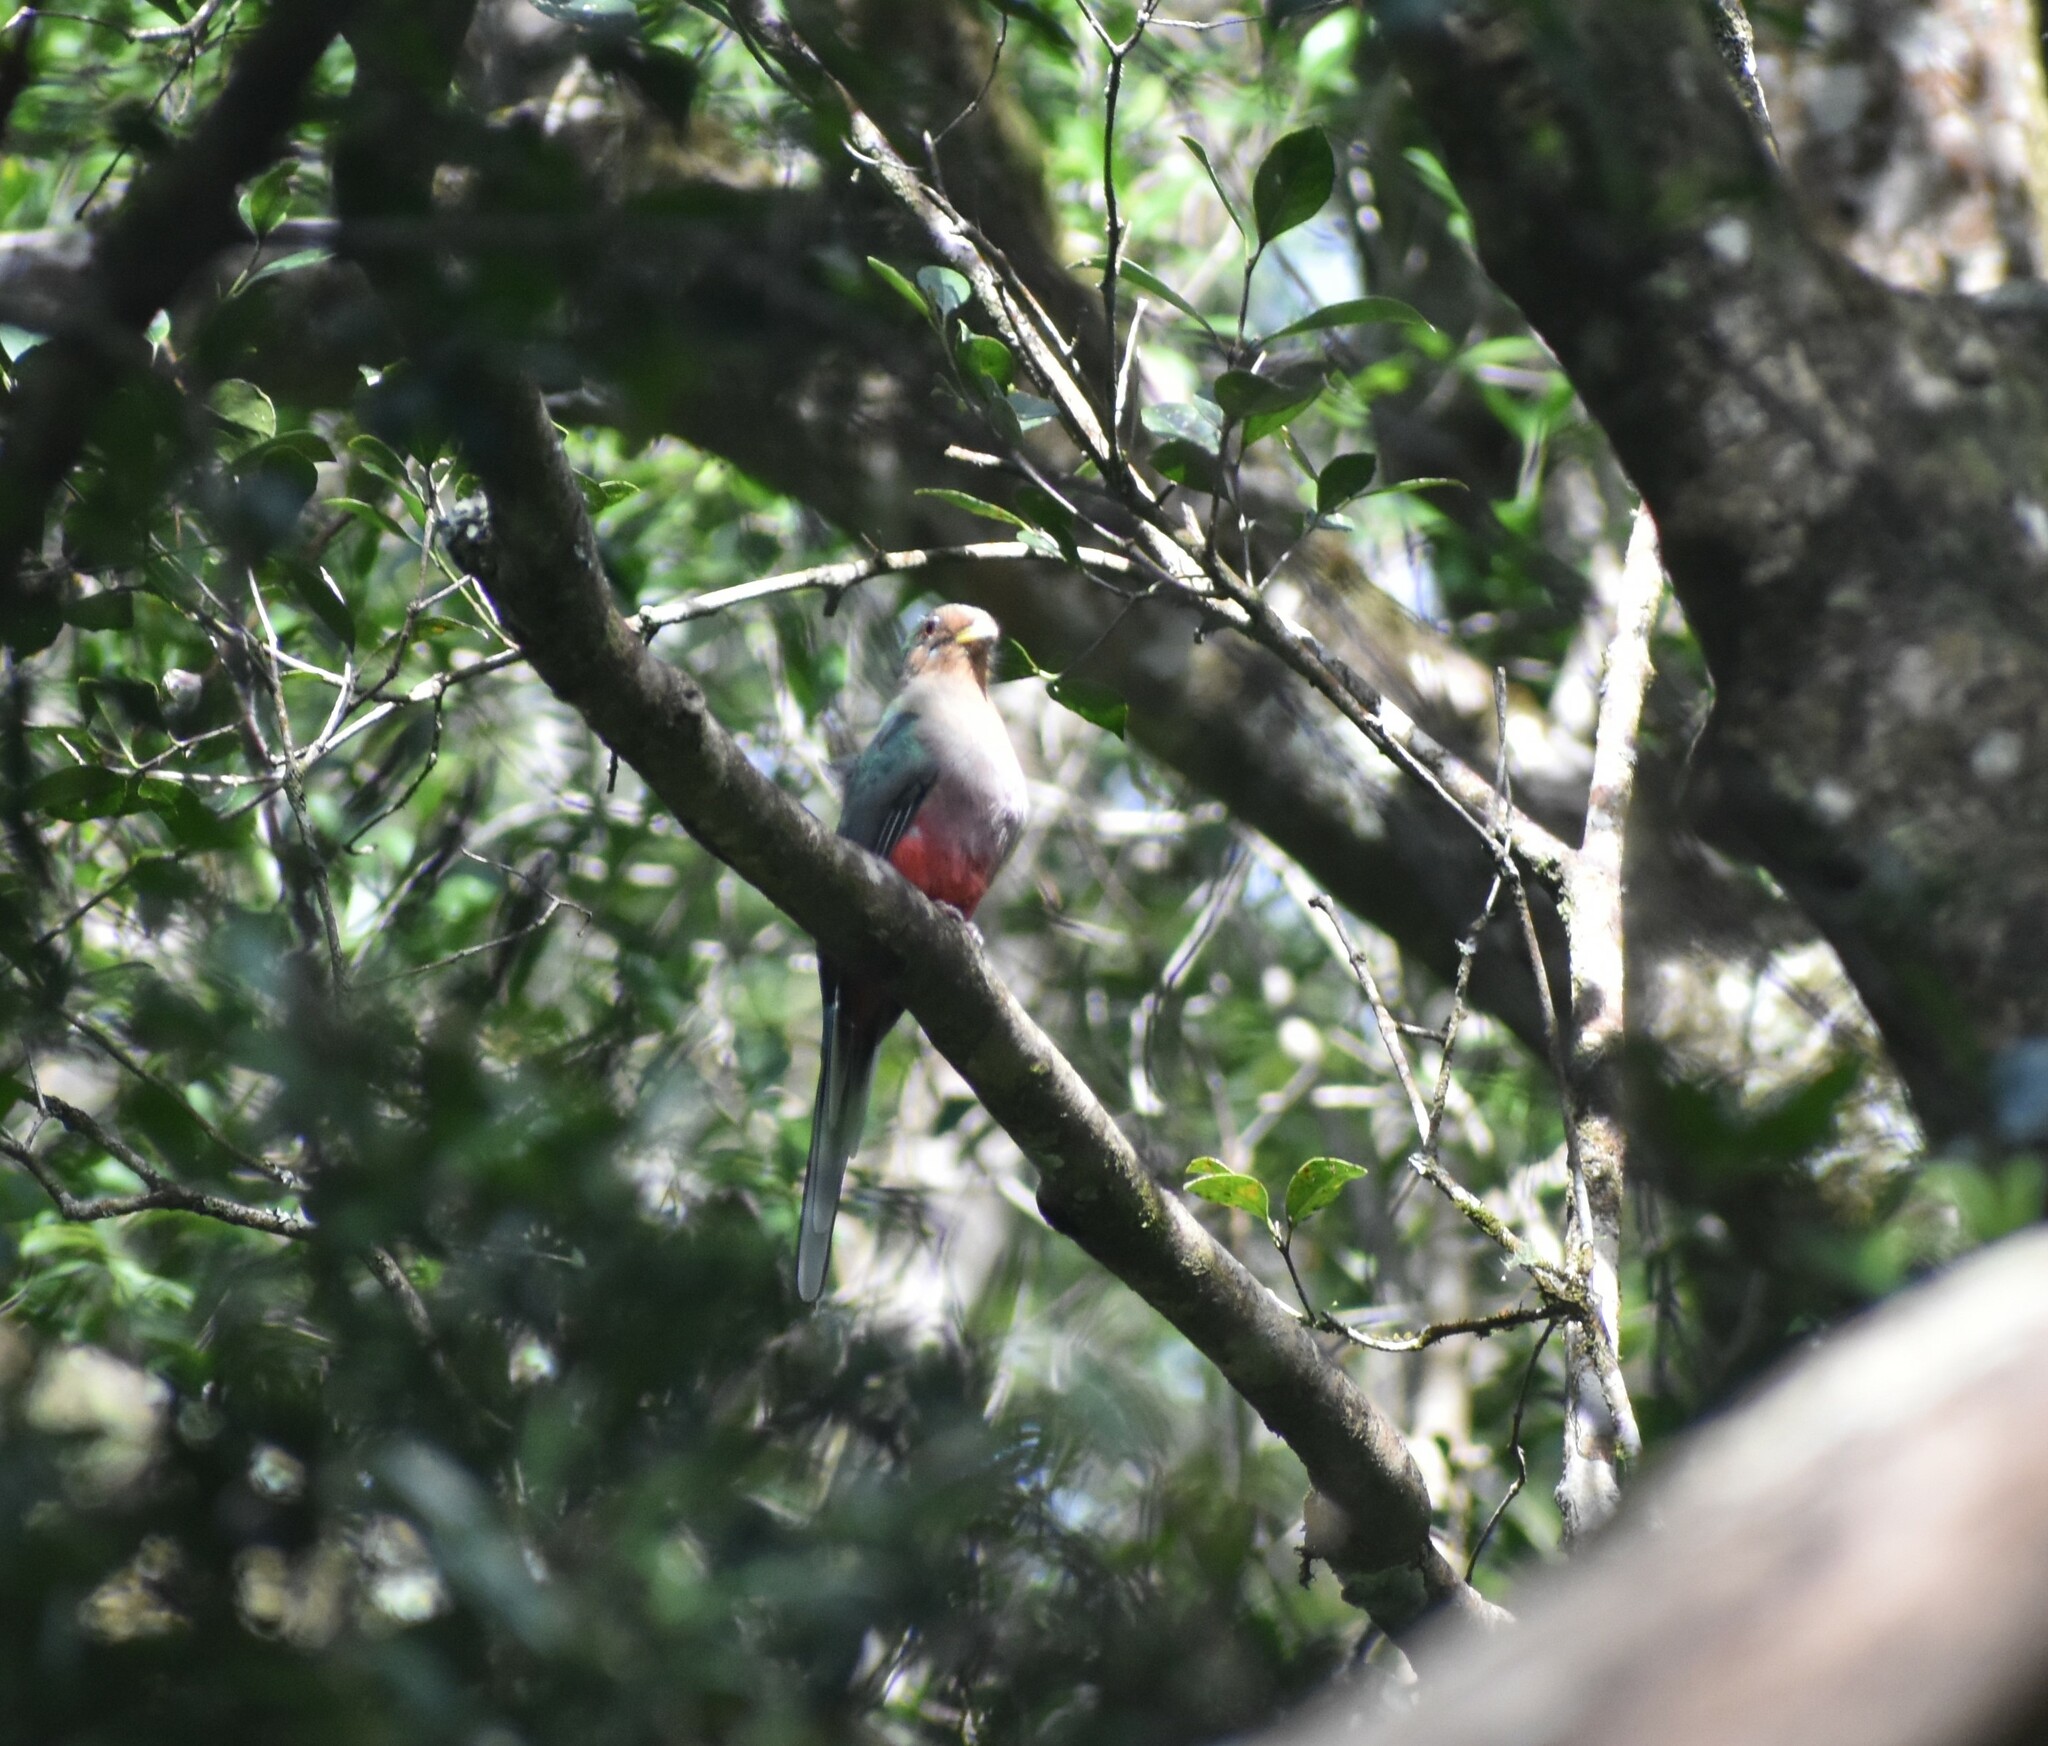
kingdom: Animalia
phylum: Chordata
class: Aves
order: Trogoniformes
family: Trogonidae
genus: Apaloderma
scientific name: Apaloderma narina
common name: Narina trogon
